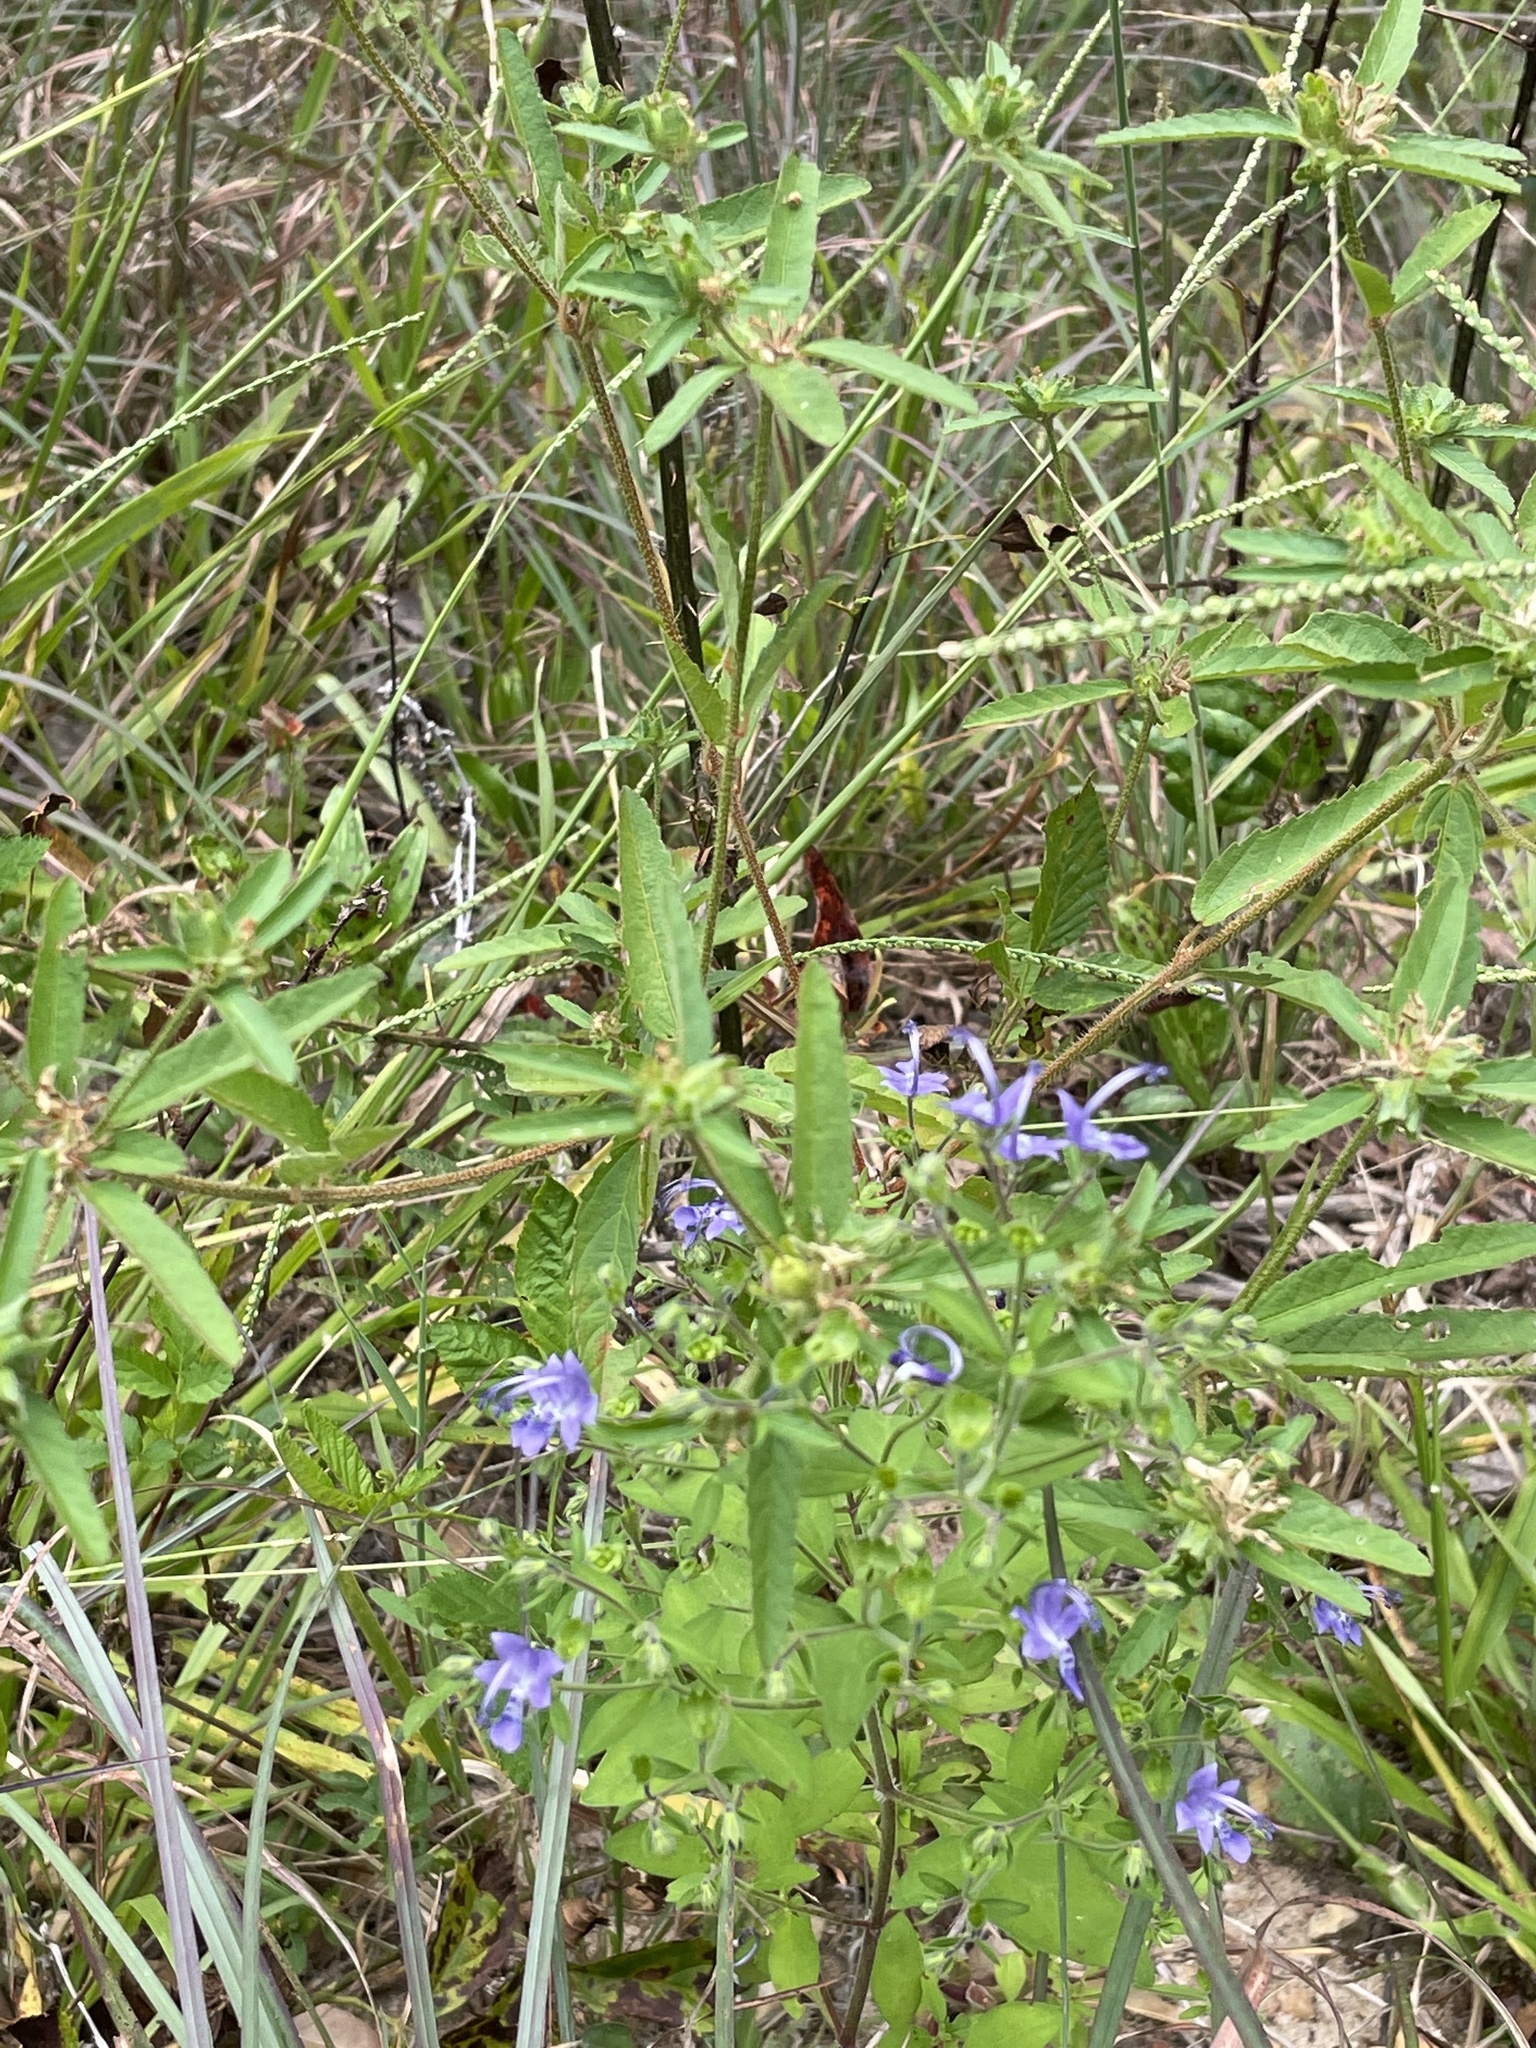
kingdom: Plantae
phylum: Tracheophyta
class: Magnoliopsida
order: Lamiales
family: Lamiaceae
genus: Trichostema
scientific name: Trichostema dichotomum
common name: Bastard pennyroyal
